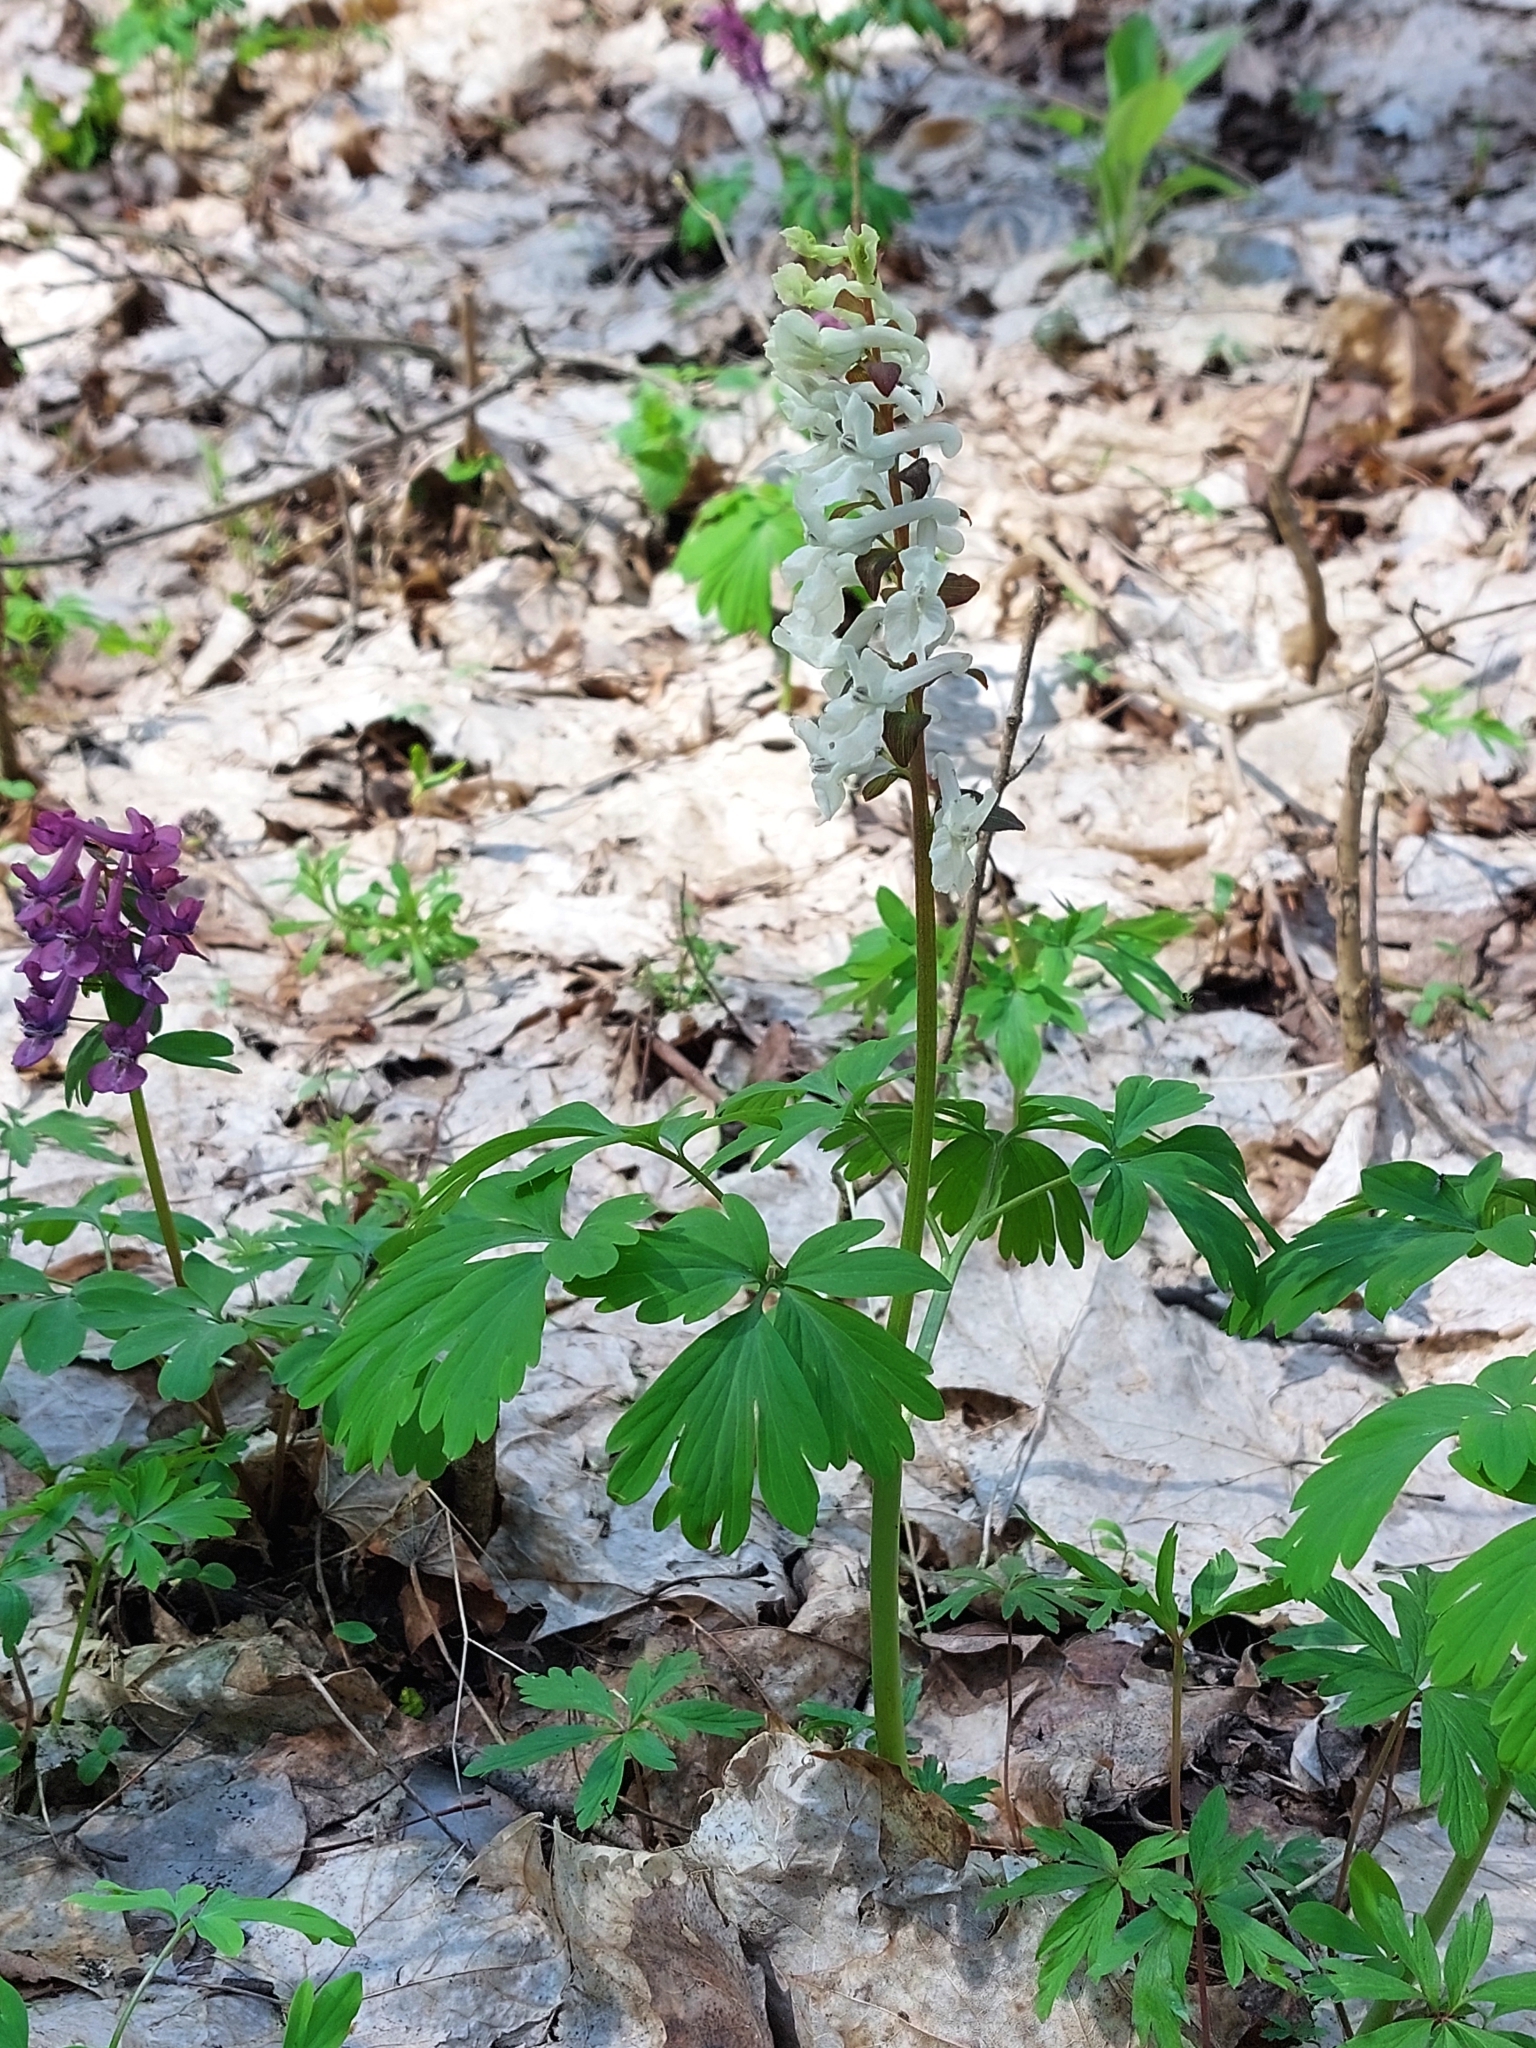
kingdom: Plantae
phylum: Tracheophyta
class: Magnoliopsida
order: Ranunculales
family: Papaveraceae
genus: Corydalis
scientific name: Corydalis cava
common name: Hollowroot
